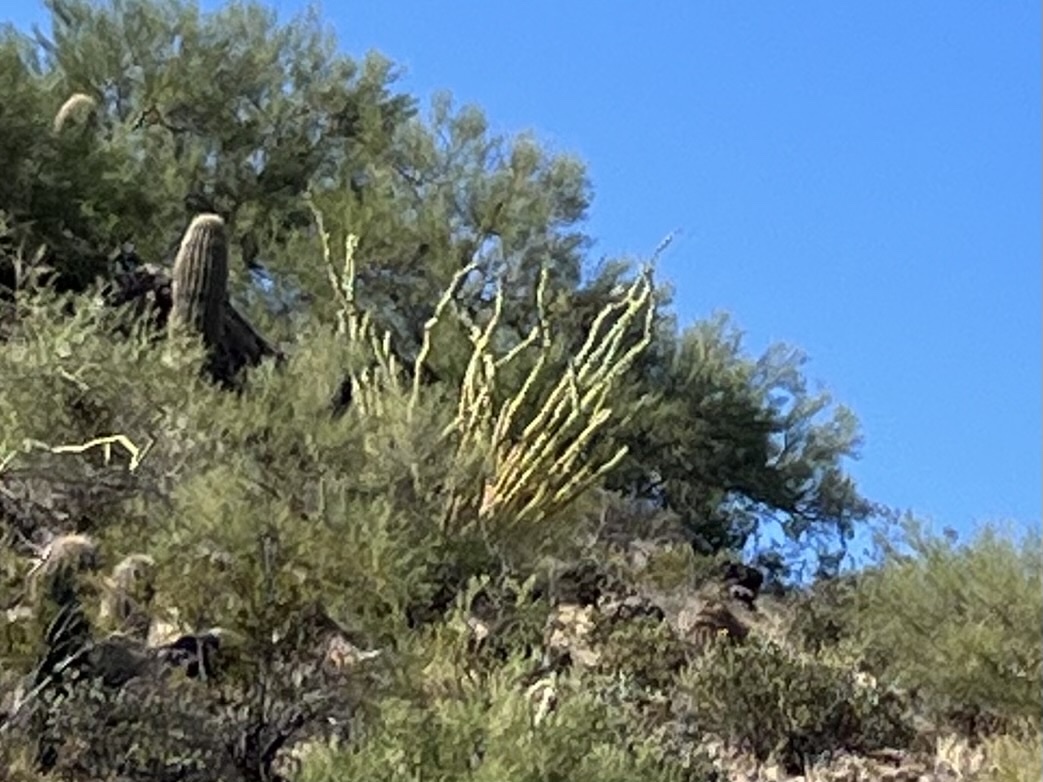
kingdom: Plantae
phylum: Tracheophyta
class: Magnoliopsida
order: Ericales
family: Fouquieriaceae
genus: Fouquieria
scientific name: Fouquieria splendens
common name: Vine-cactus
